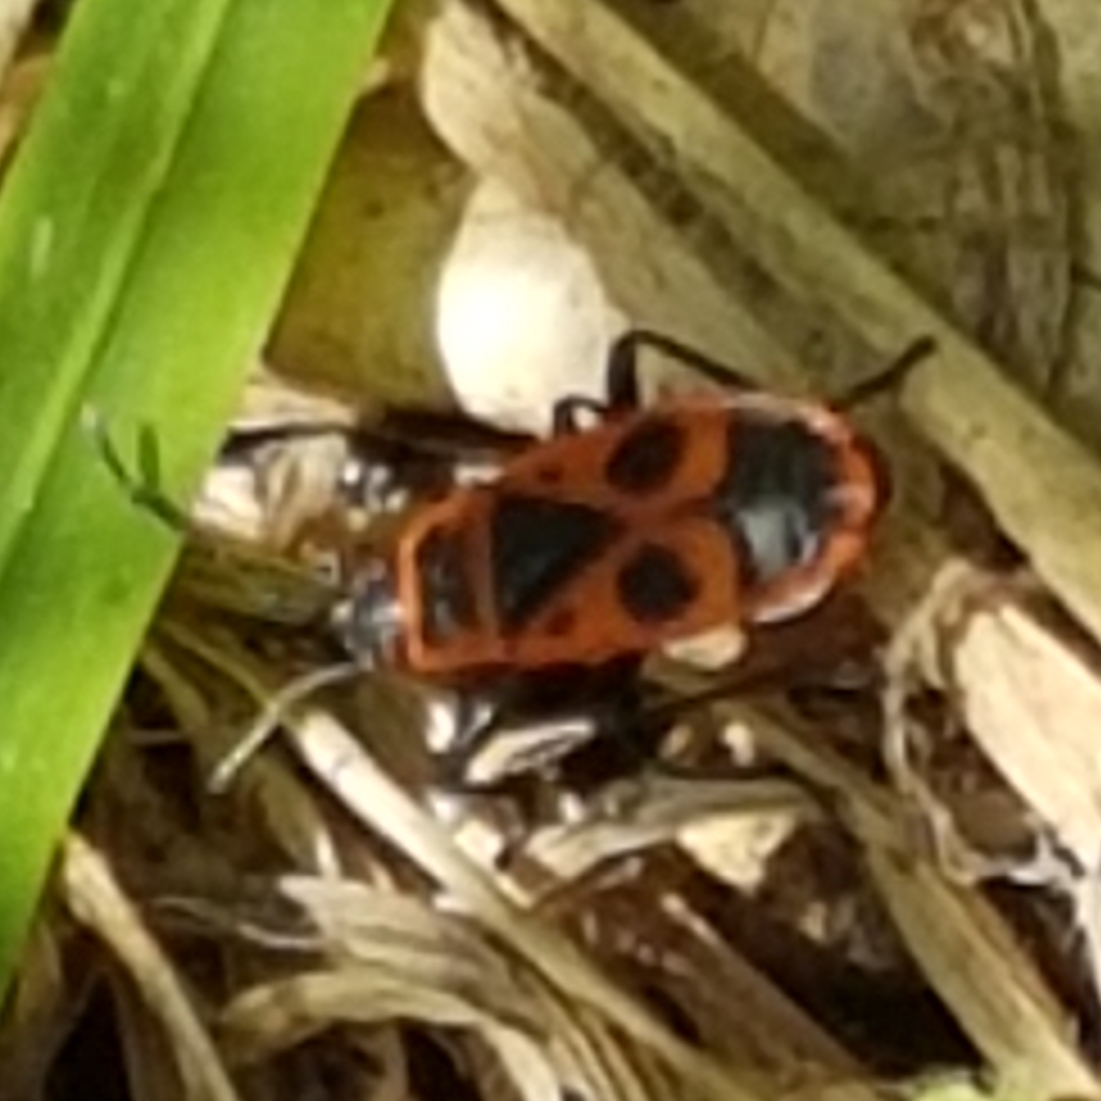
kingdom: Animalia
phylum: Arthropoda
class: Insecta
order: Hemiptera
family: Pyrrhocoridae
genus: Pyrrhocoris
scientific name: Pyrrhocoris apterus
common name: Firebug
